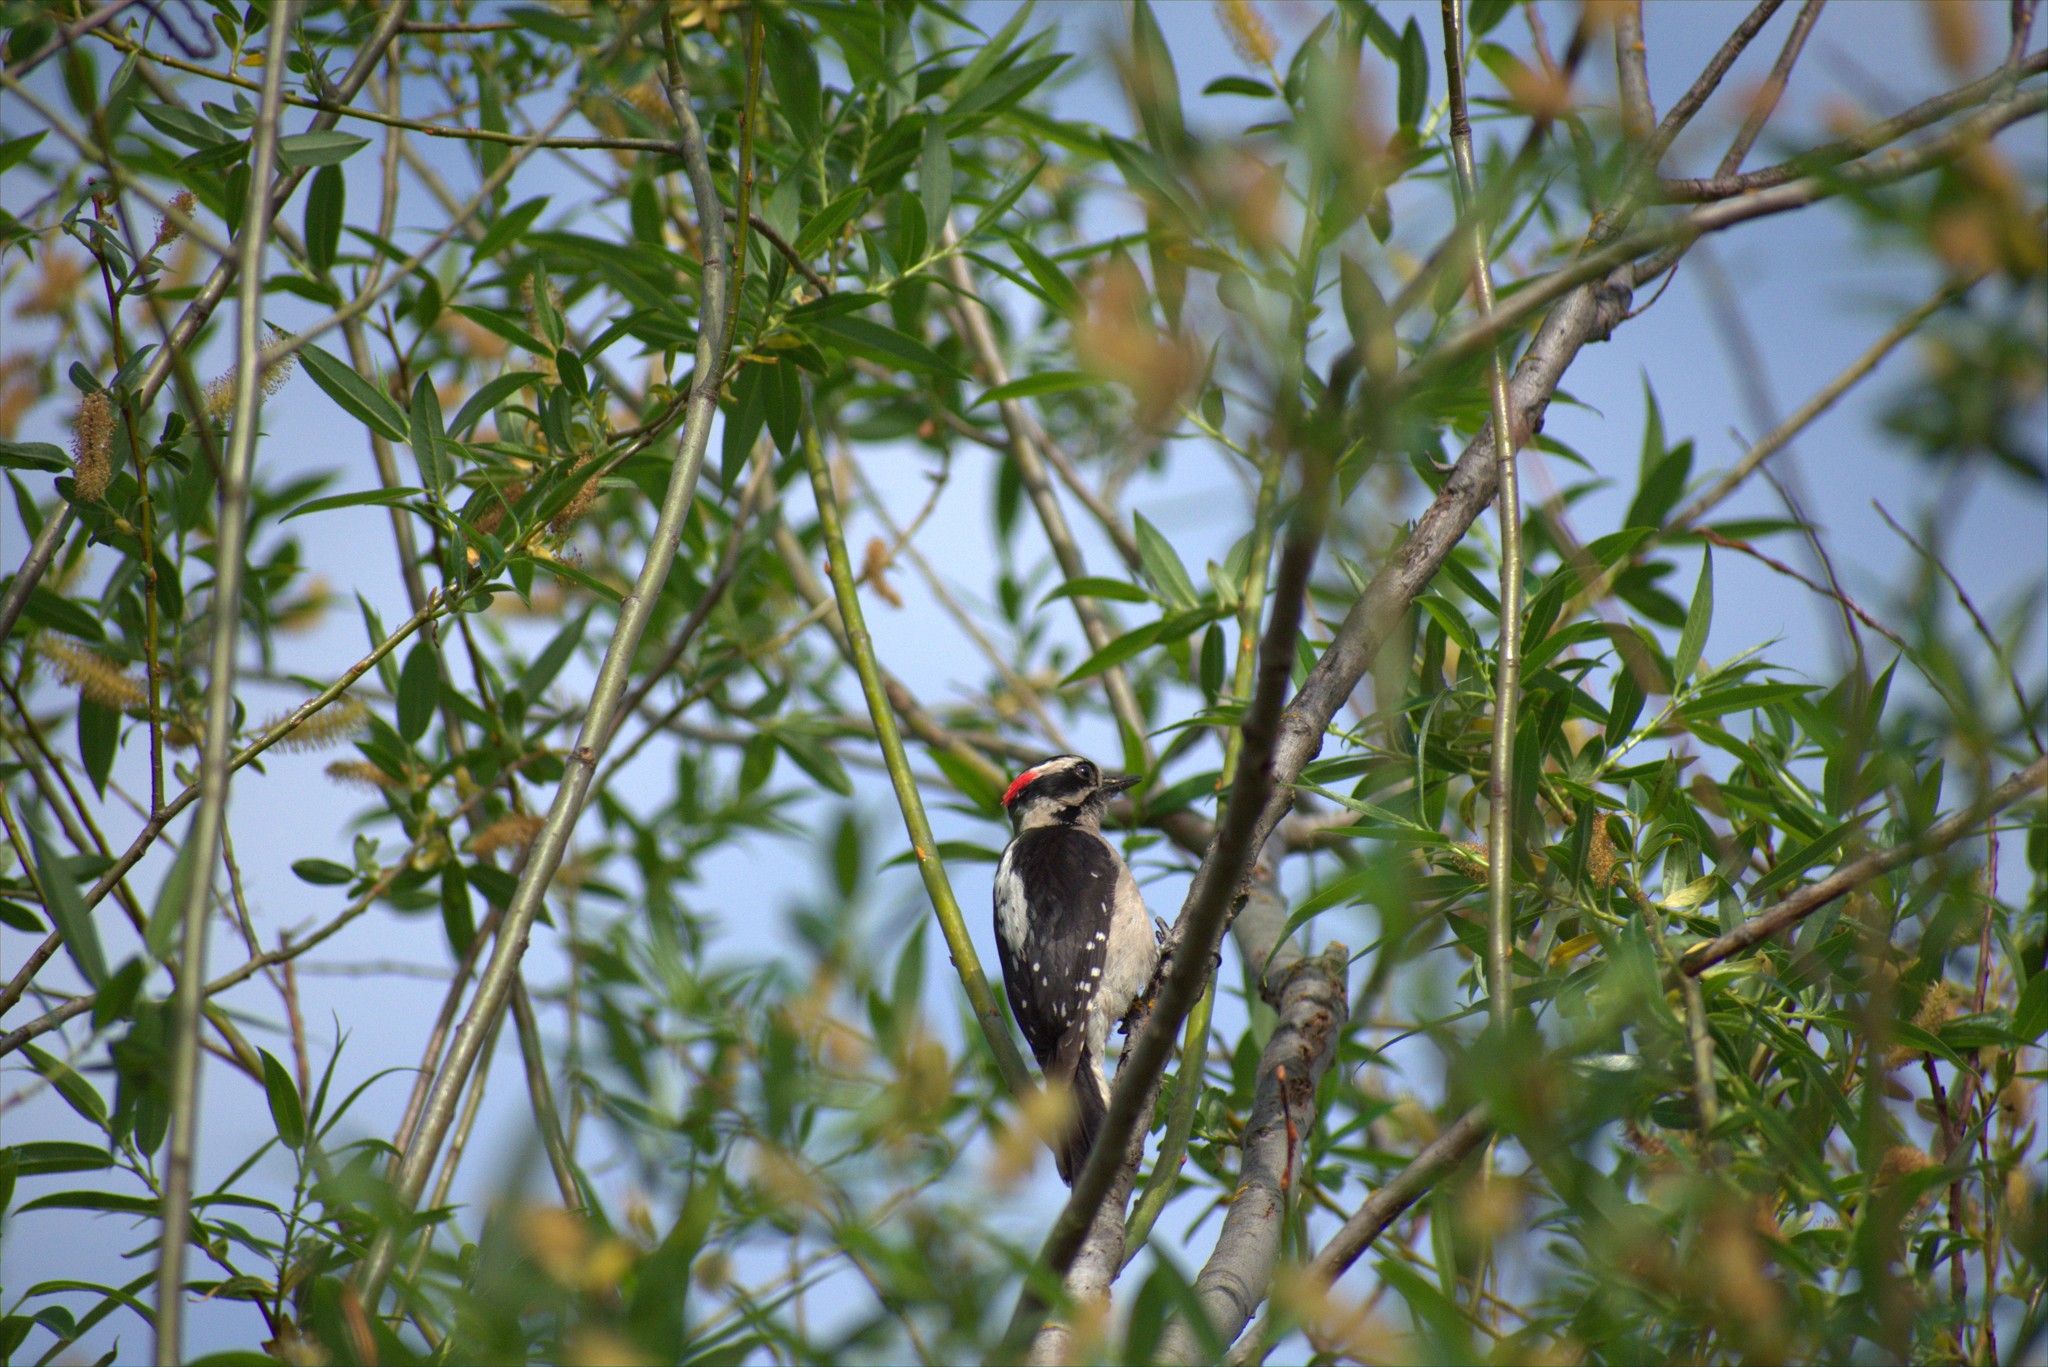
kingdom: Animalia
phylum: Chordata
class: Aves
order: Piciformes
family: Picidae
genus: Dryobates
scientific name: Dryobates pubescens
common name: Downy woodpecker
